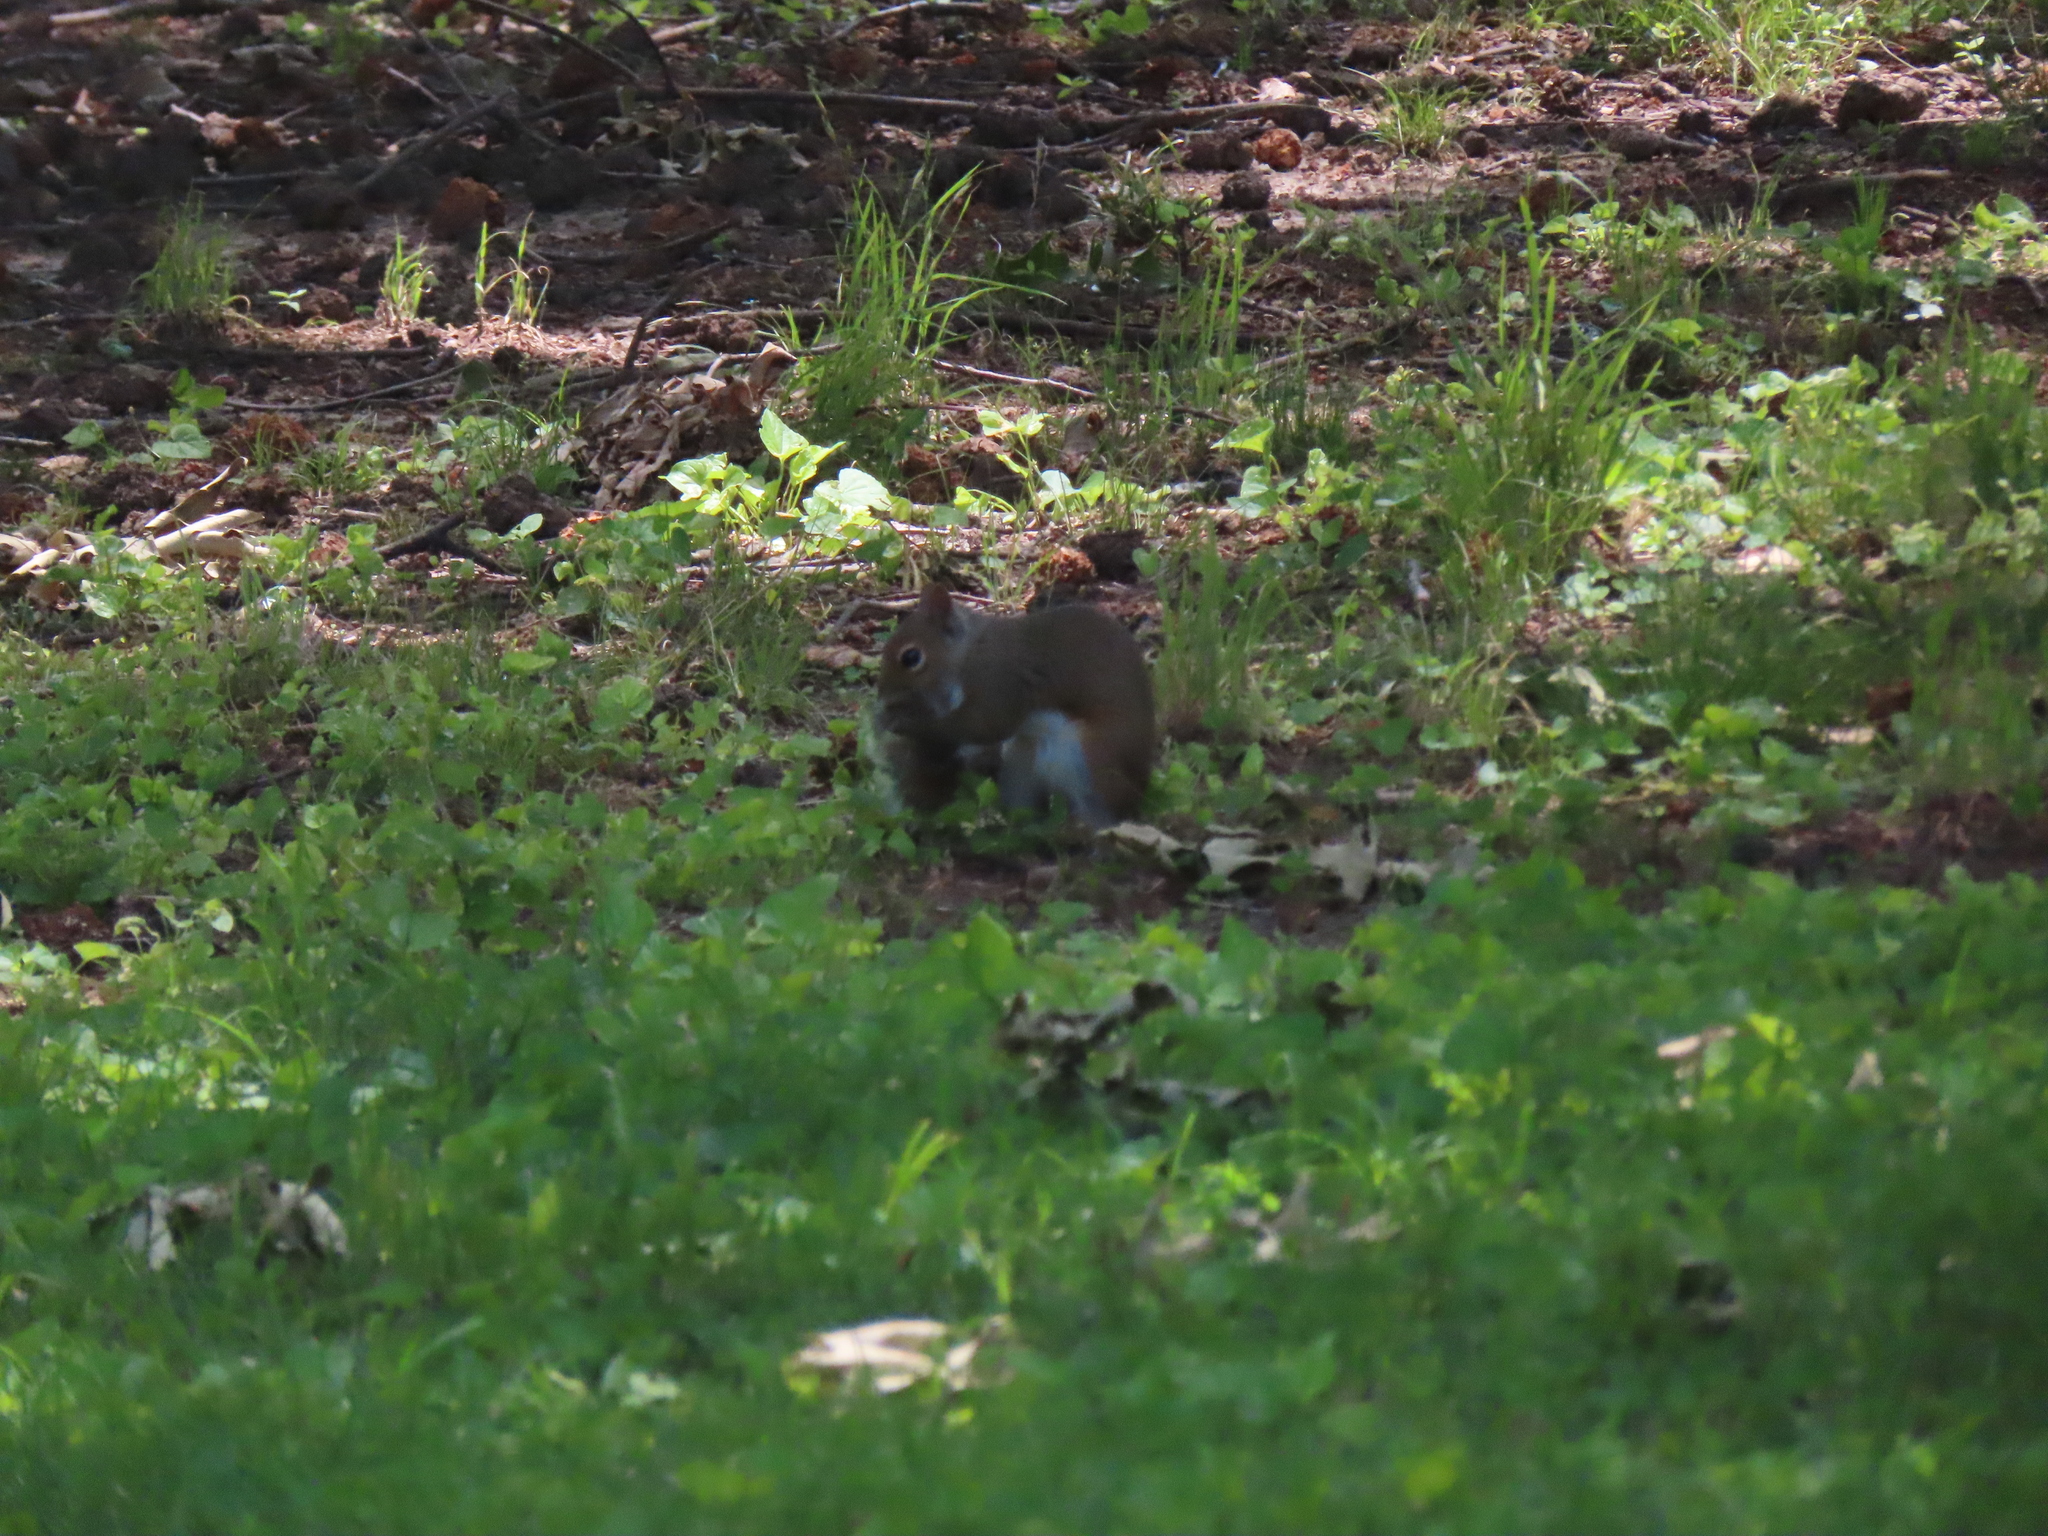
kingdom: Animalia
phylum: Chordata
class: Mammalia
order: Rodentia
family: Sciuridae
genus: Sciurus
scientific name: Sciurus carolinensis
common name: Eastern gray squirrel
